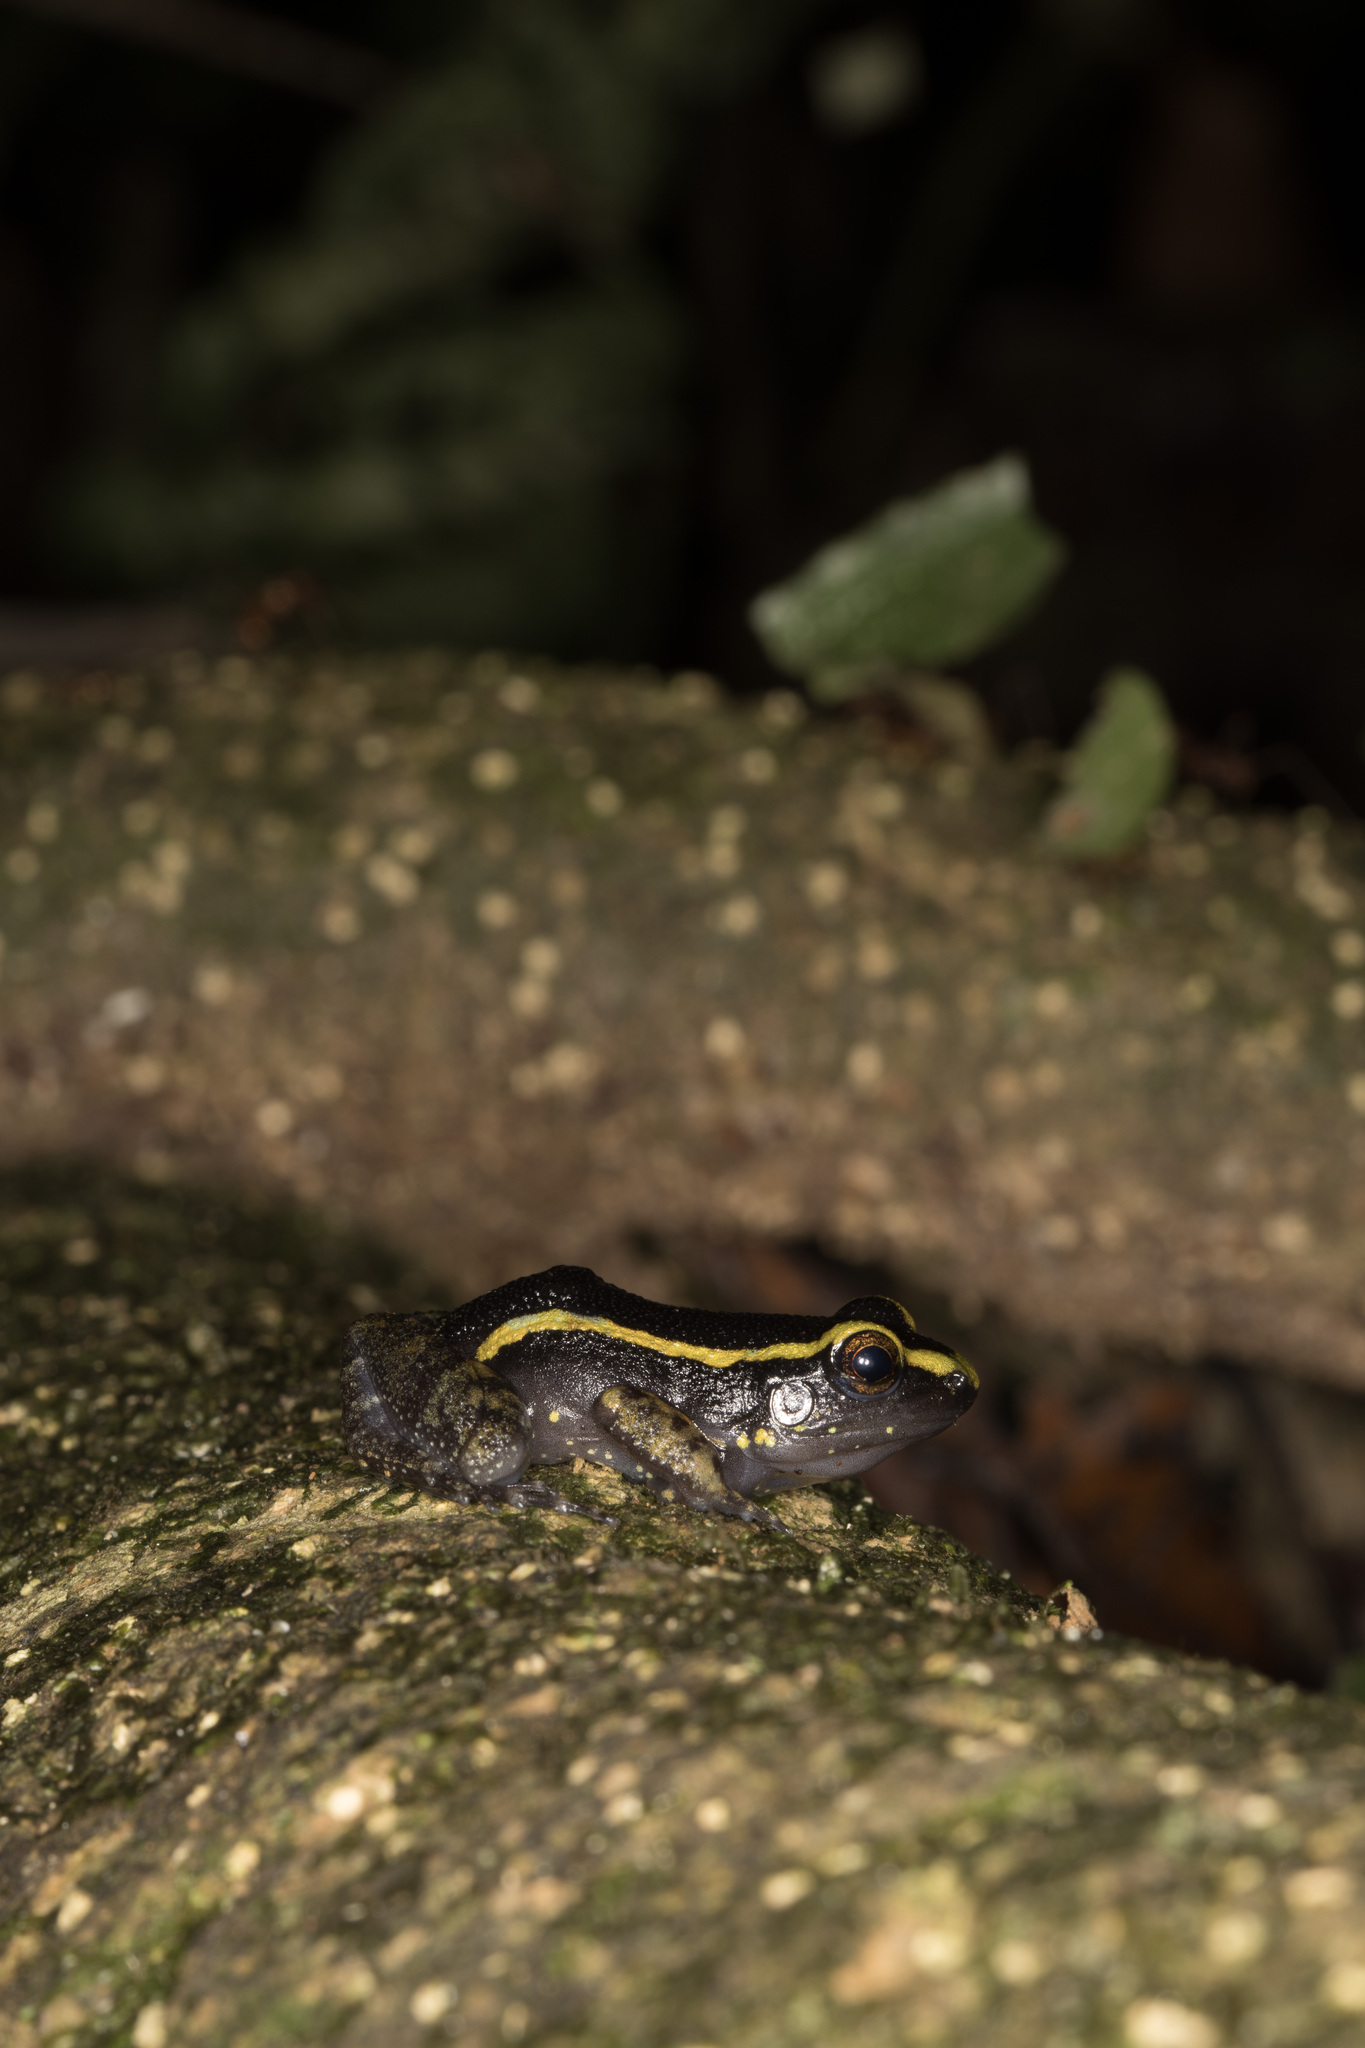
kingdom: Animalia
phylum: Chordata
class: Amphibia
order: Anura
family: Leptodactylidae
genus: Lithodytes
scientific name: Lithodytes lineatus
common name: Gold-striped frog
